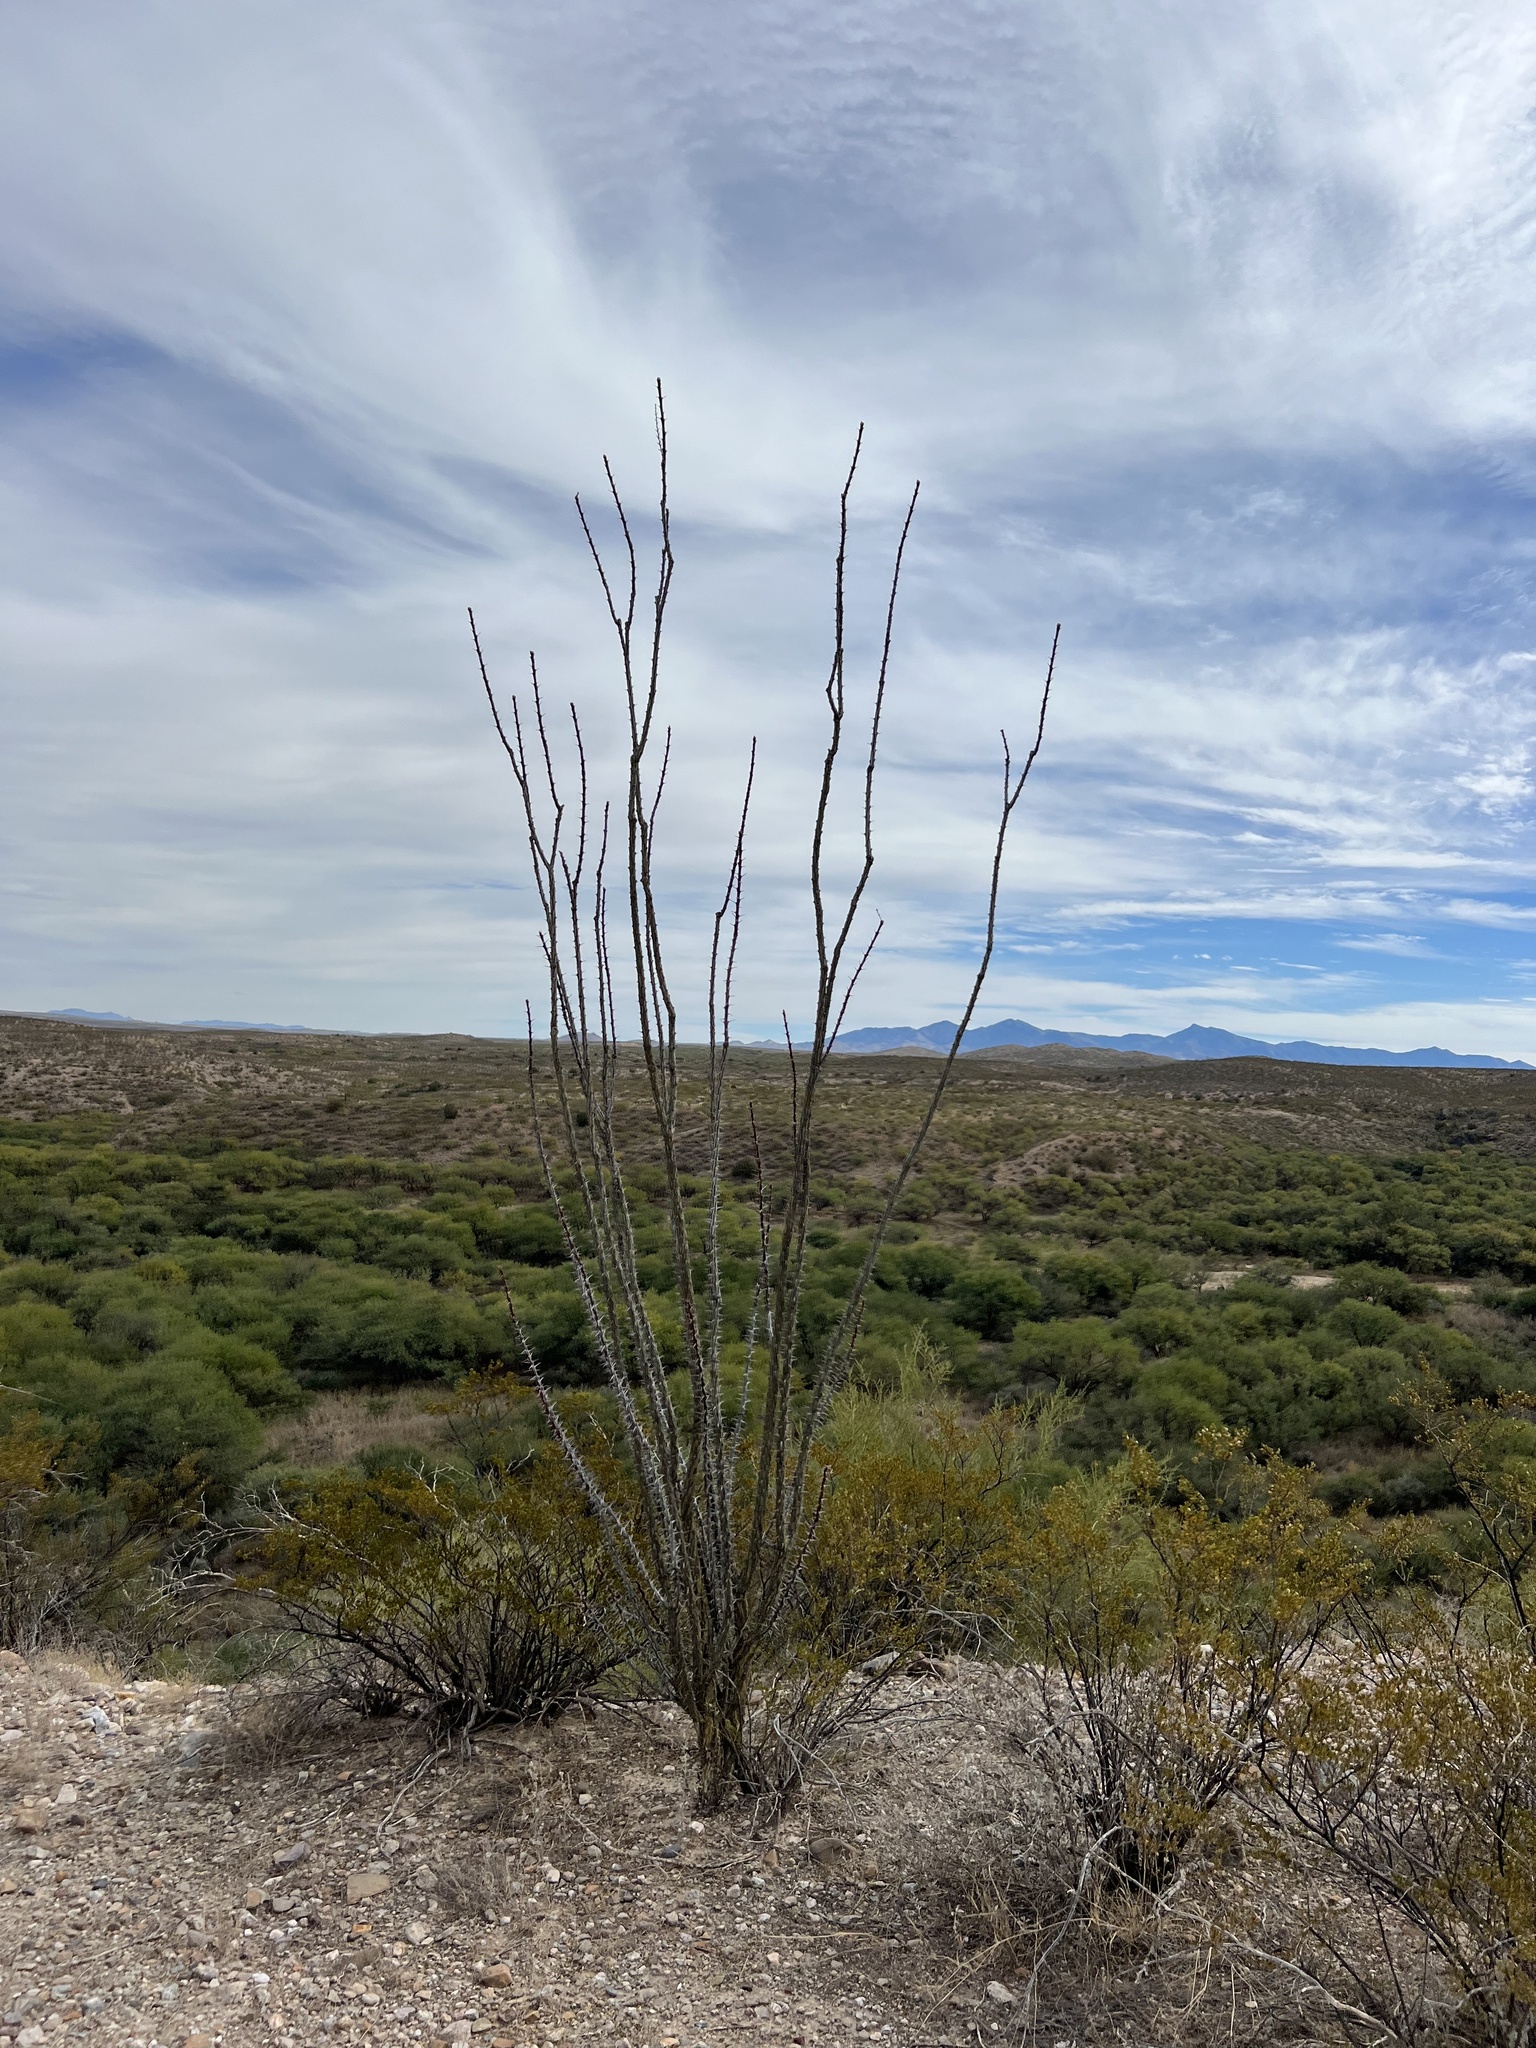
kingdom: Plantae
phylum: Tracheophyta
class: Magnoliopsida
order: Ericales
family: Fouquieriaceae
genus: Fouquieria
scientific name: Fouquieria splendens
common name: Vine-cactus
